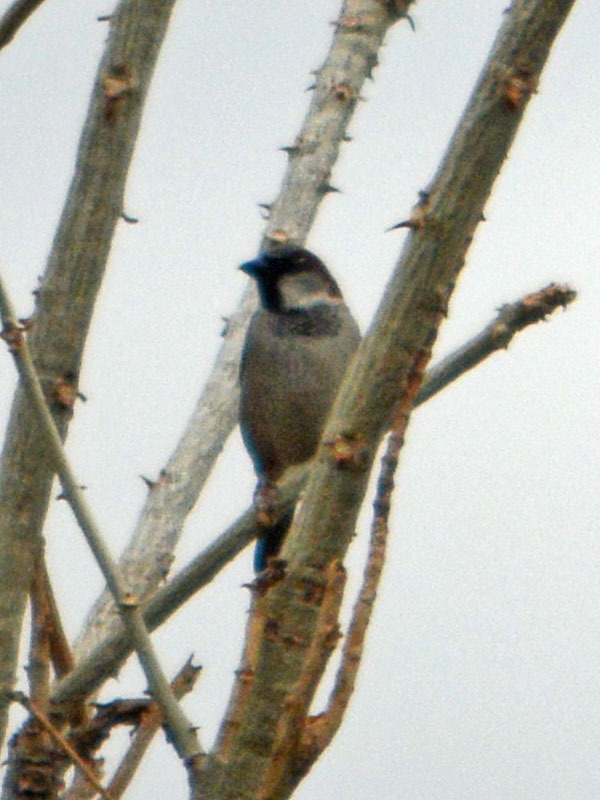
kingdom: Animalia
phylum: Chordata
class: Aves
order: Passeriformes
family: Passeridae
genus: Passer
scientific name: Passer domesticus
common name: House sparrow
